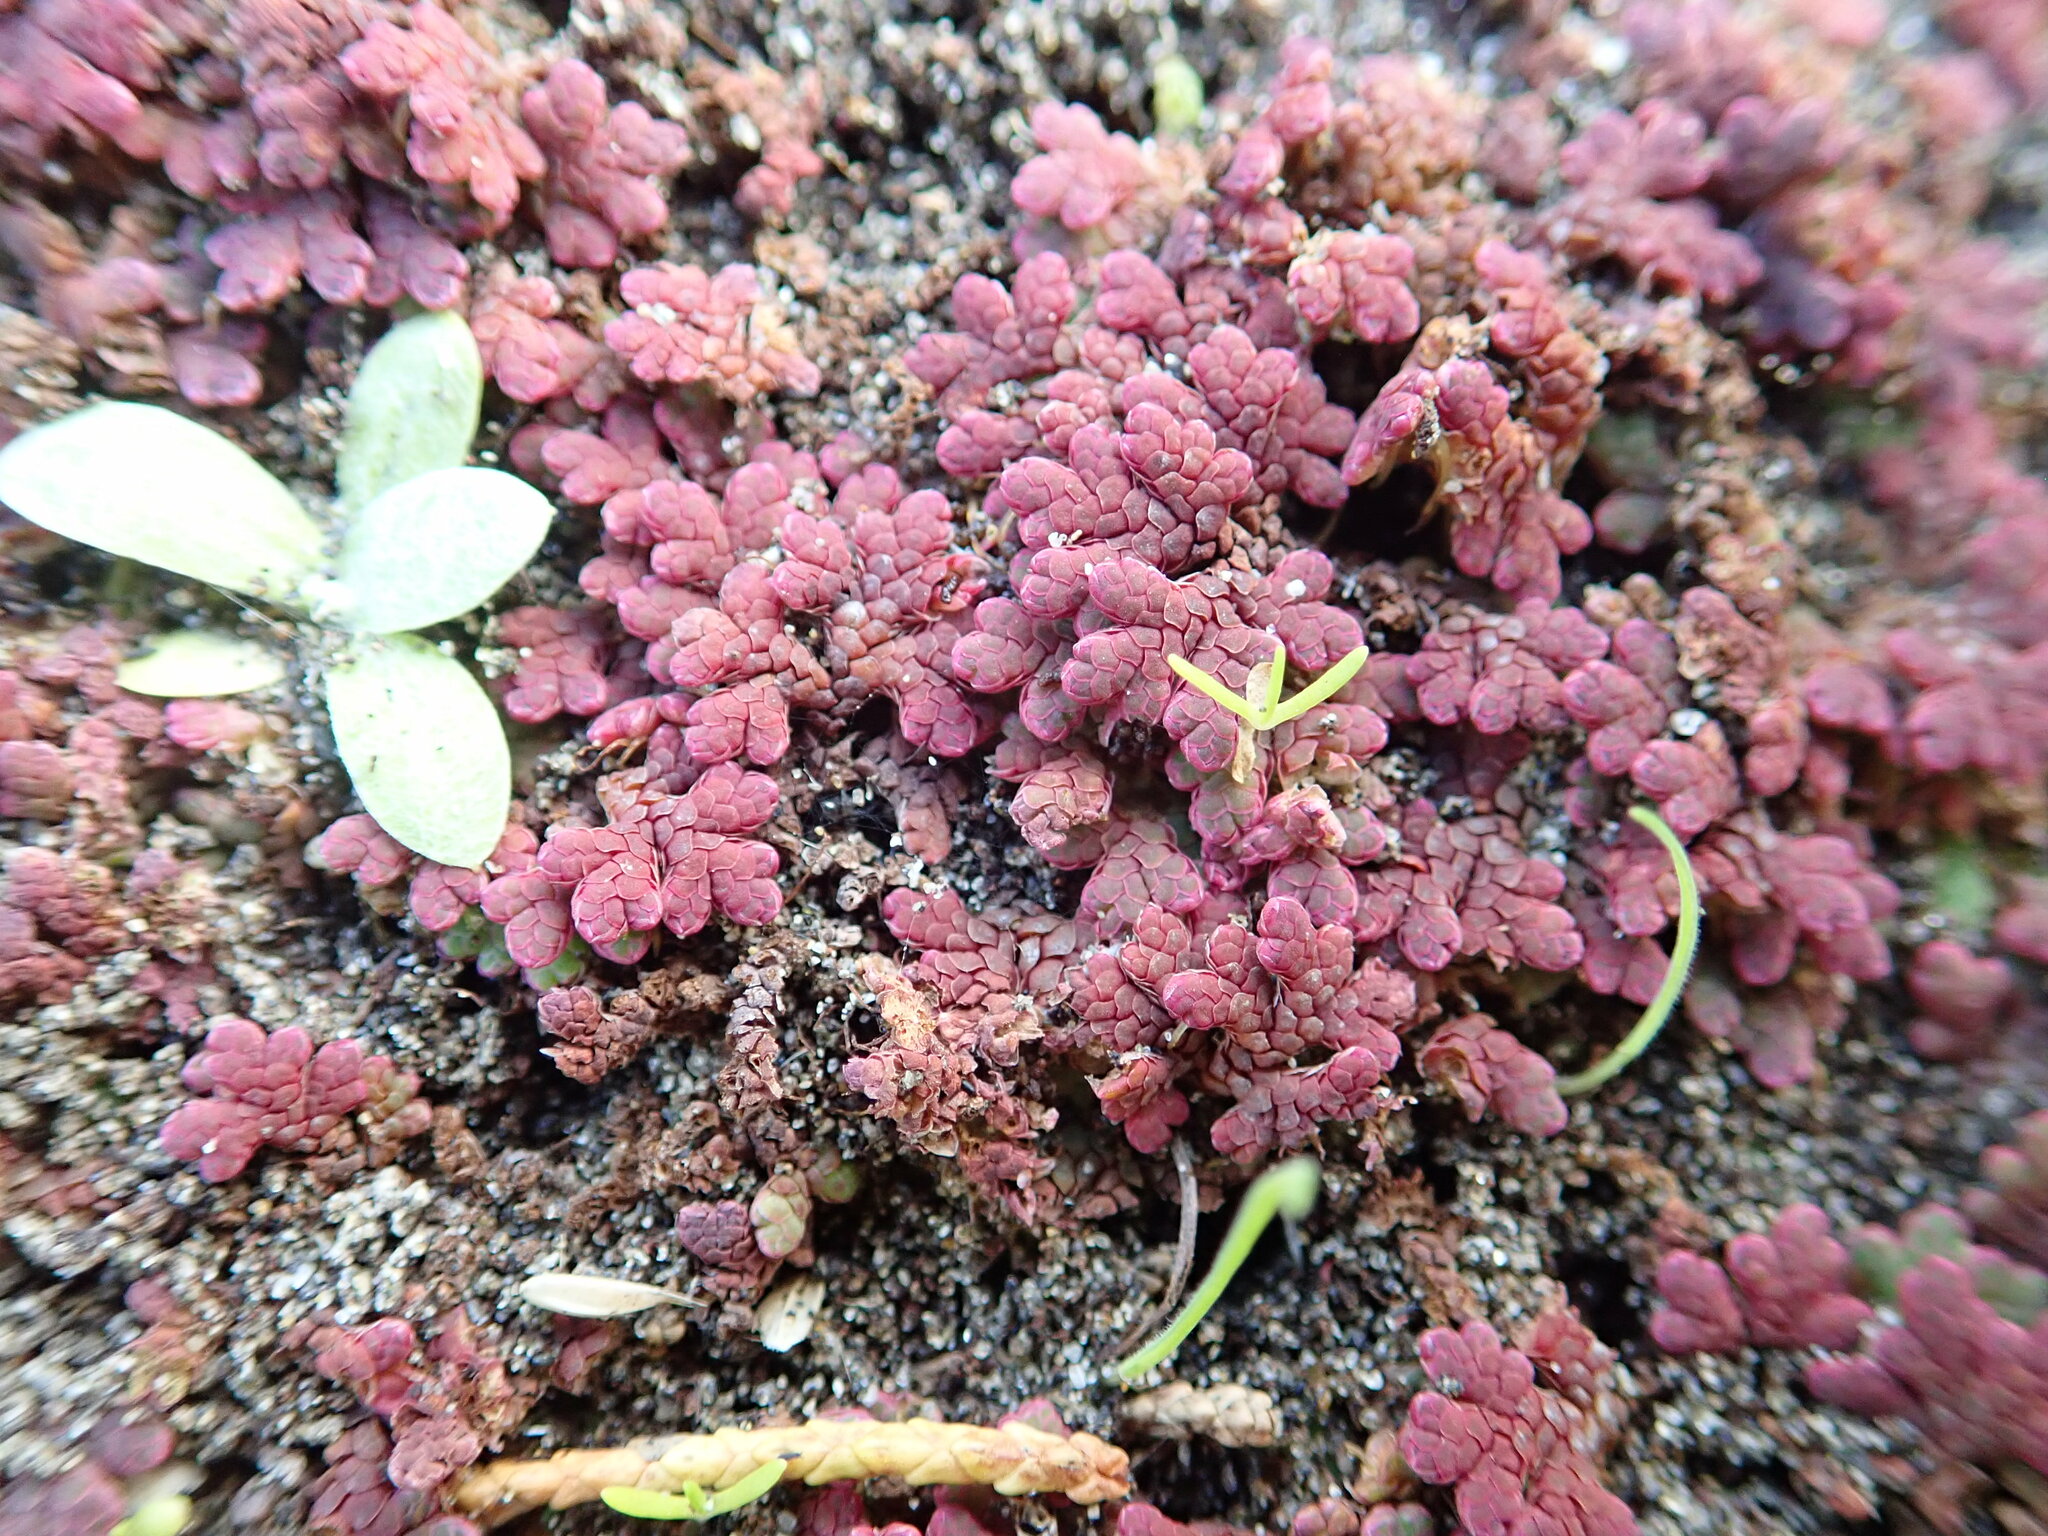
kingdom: Plantae
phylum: Tracheophyta
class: Polypodiopsida
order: Salviniales
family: Salviniaceae
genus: Azolla
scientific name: Azolla rubra
